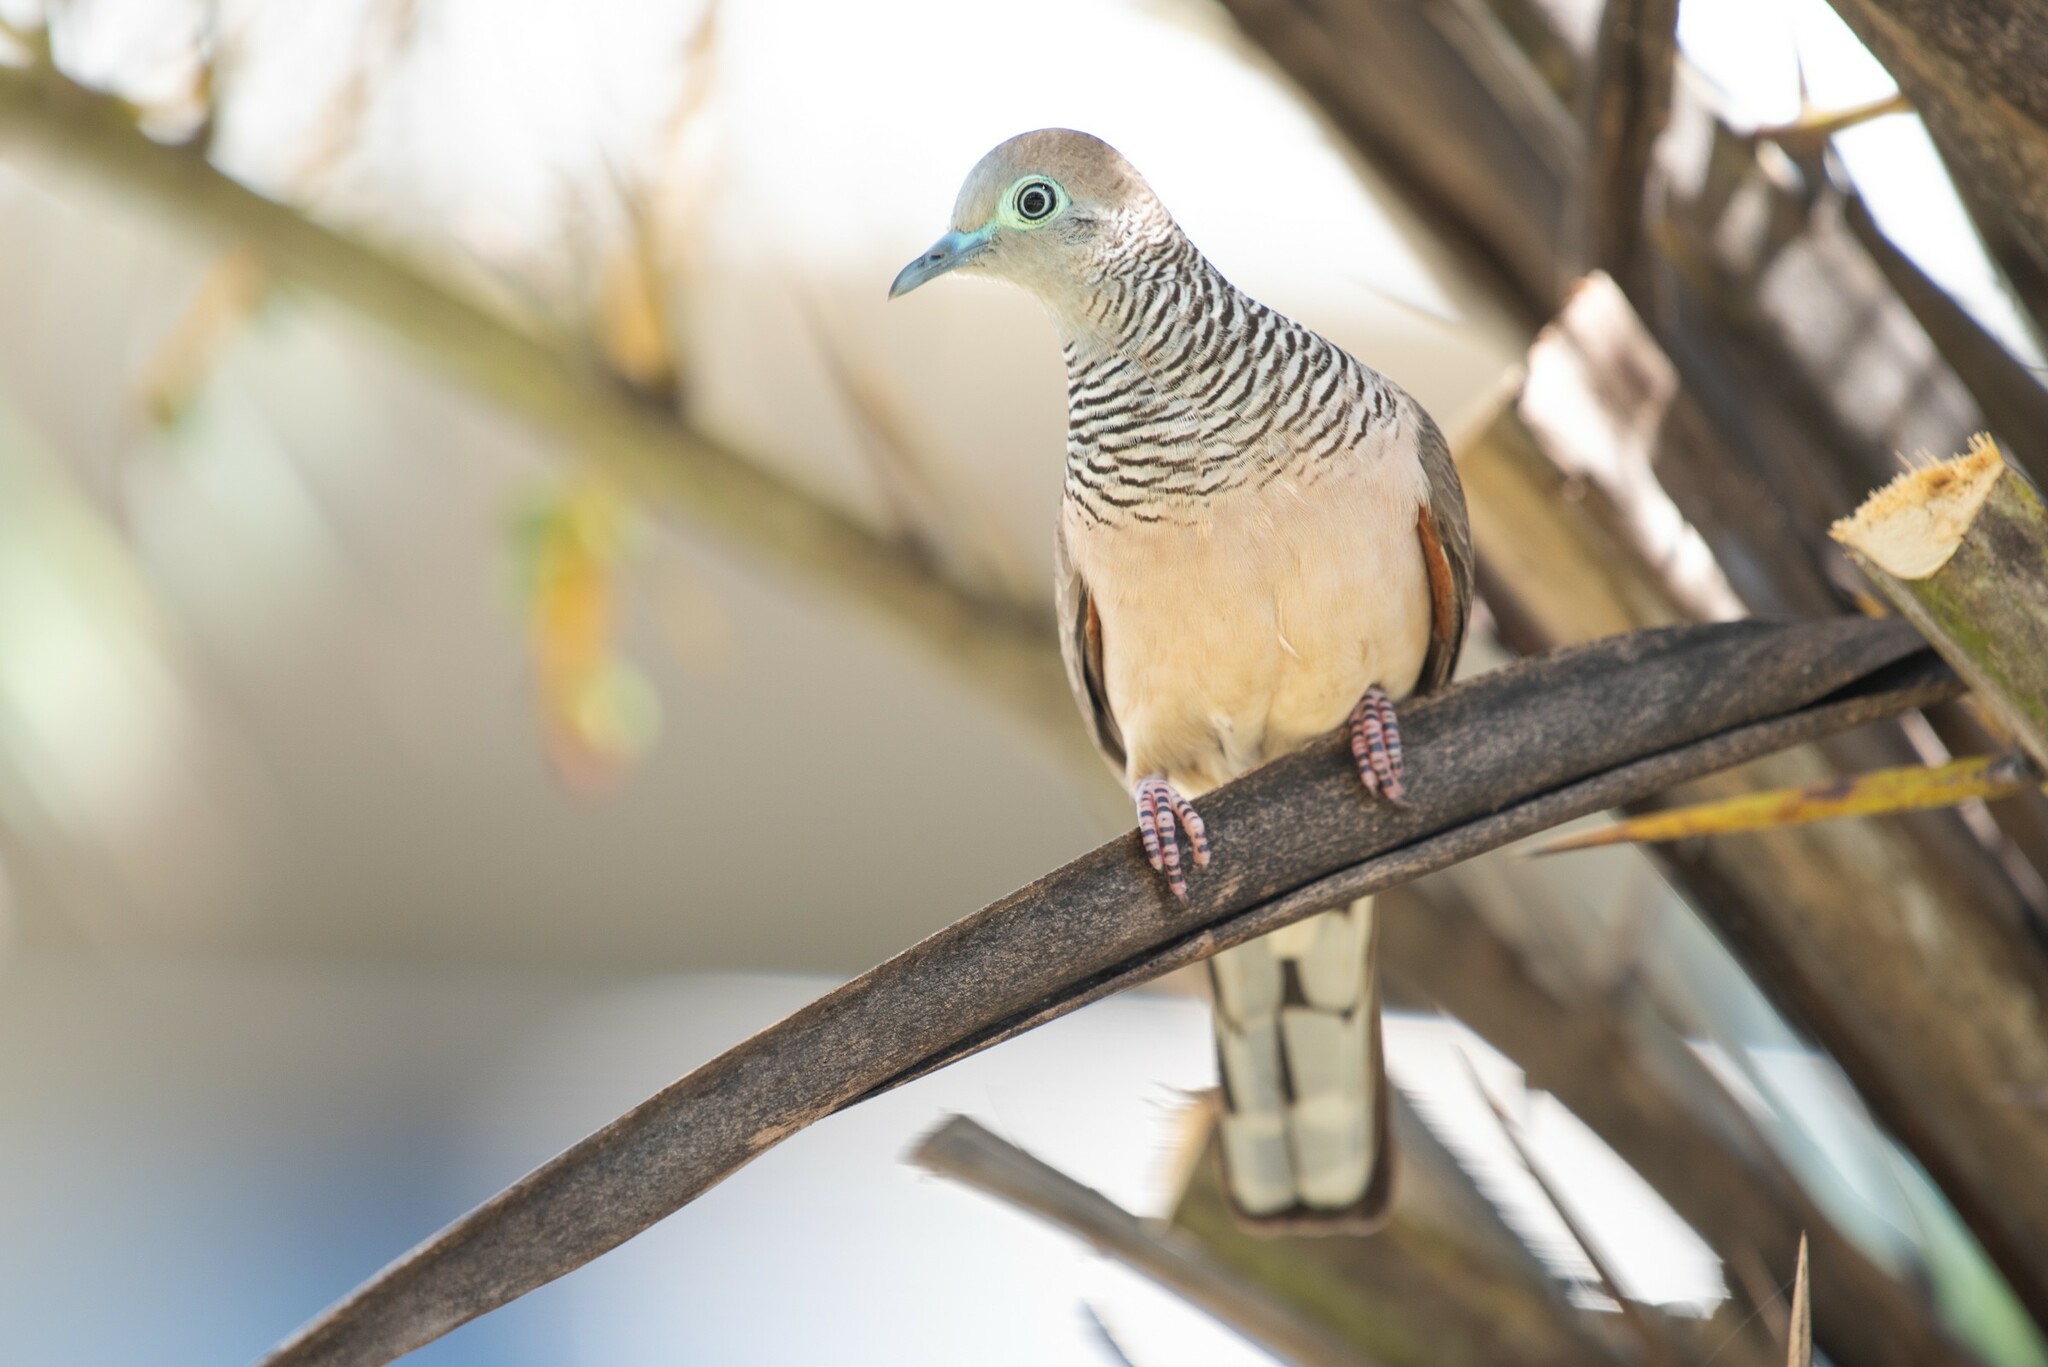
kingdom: Animalia
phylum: Chordata
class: Aves
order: Columbiformes
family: Columbidae
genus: Geopelia
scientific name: Geopelia placida
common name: Peaceful dove
